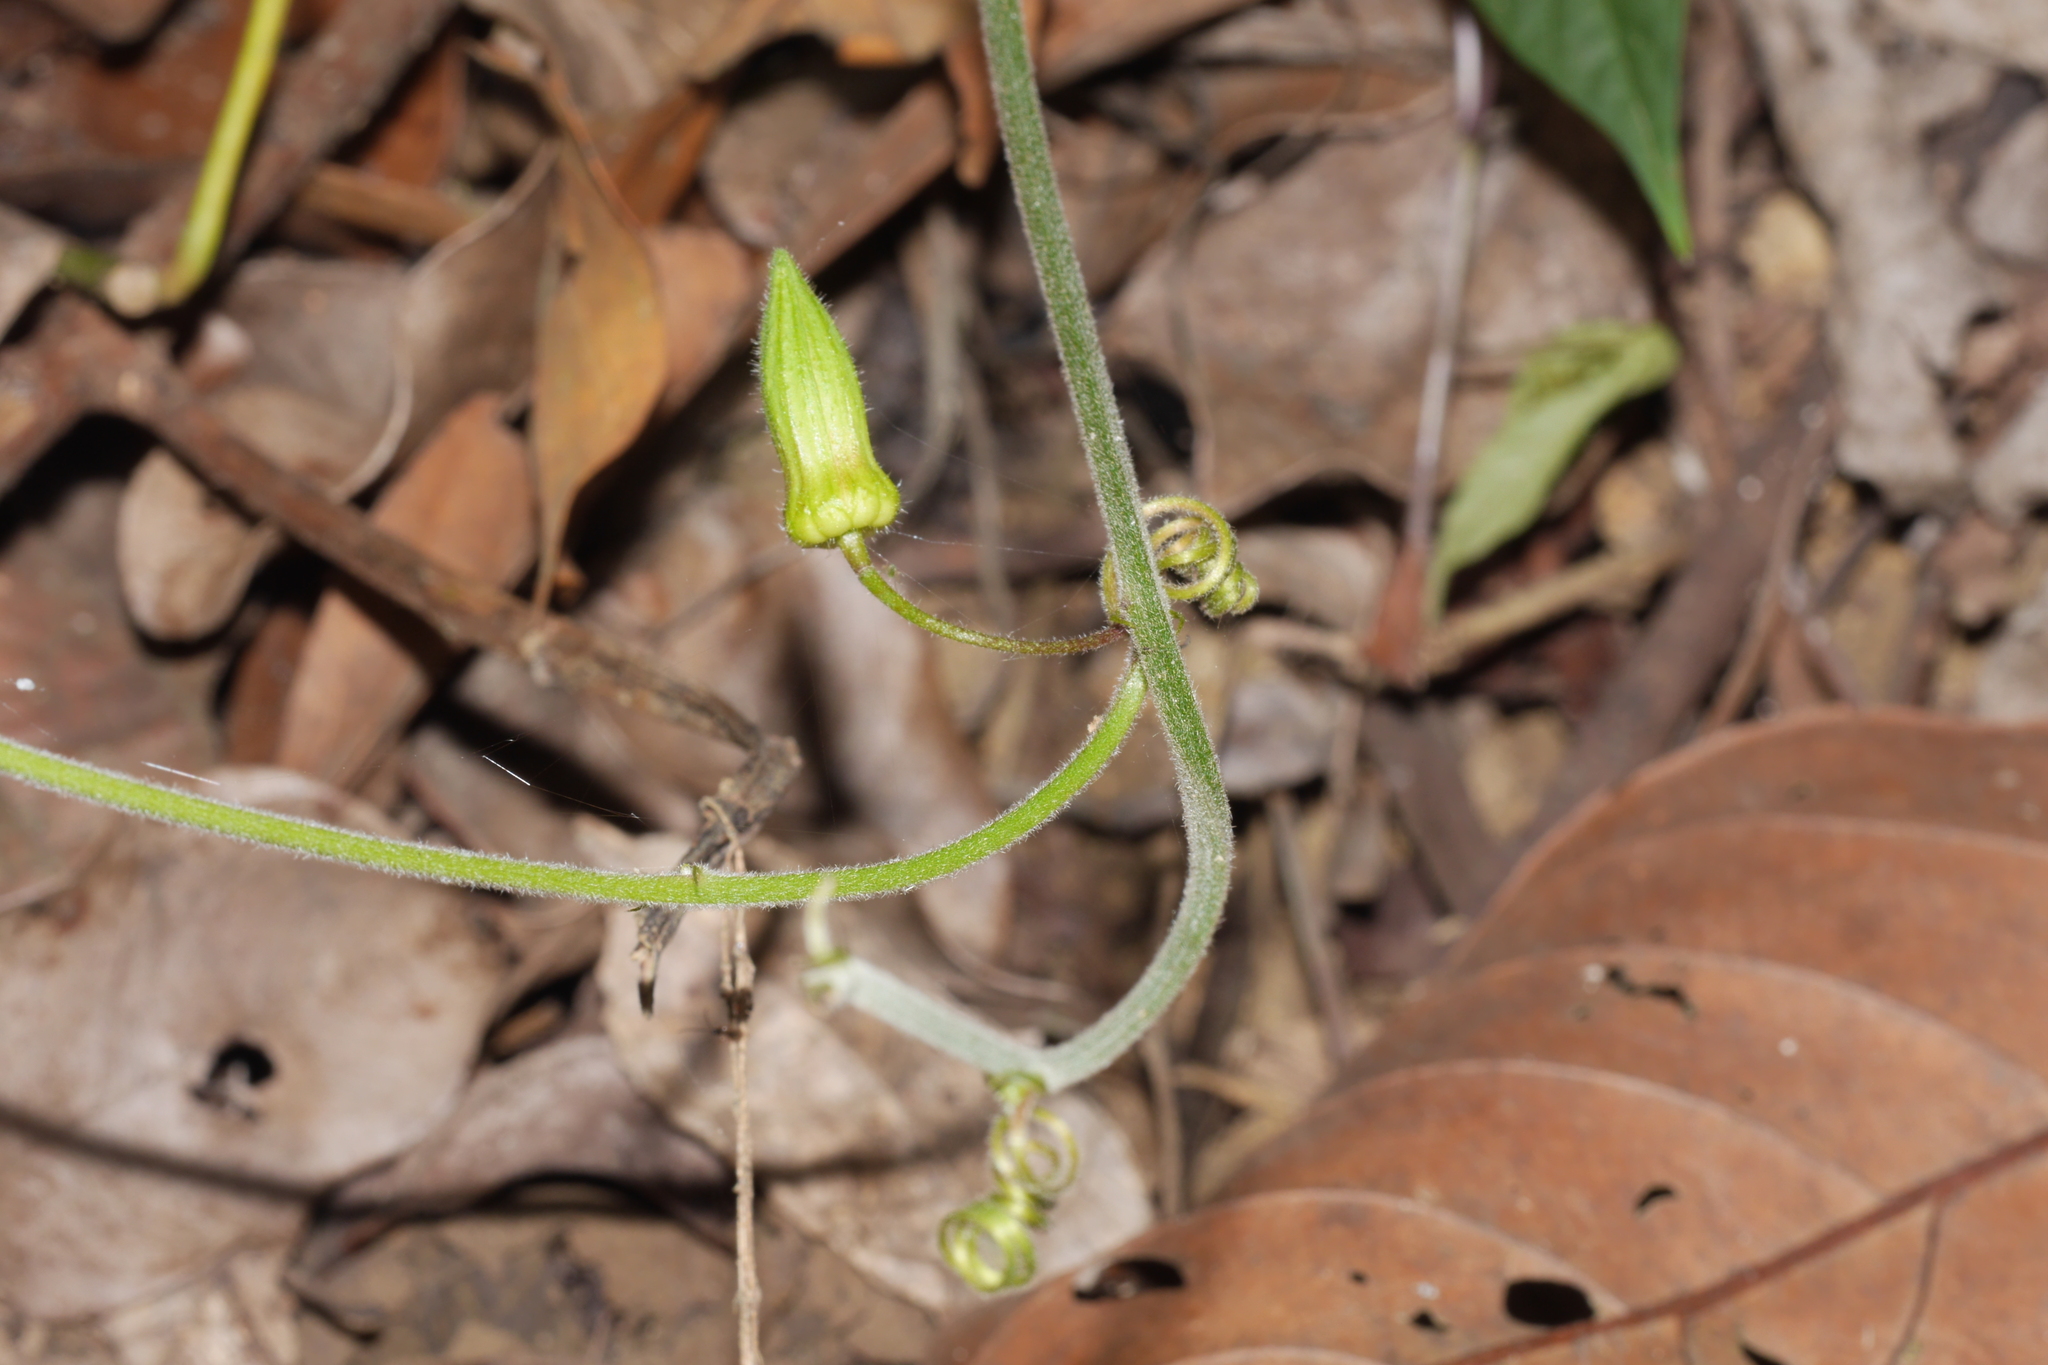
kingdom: Plantae
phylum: Tracheophyta
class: Magnoliopsida
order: Malpighiales
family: Passifloraceae
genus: Passiflora
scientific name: Passiflora cisnana
